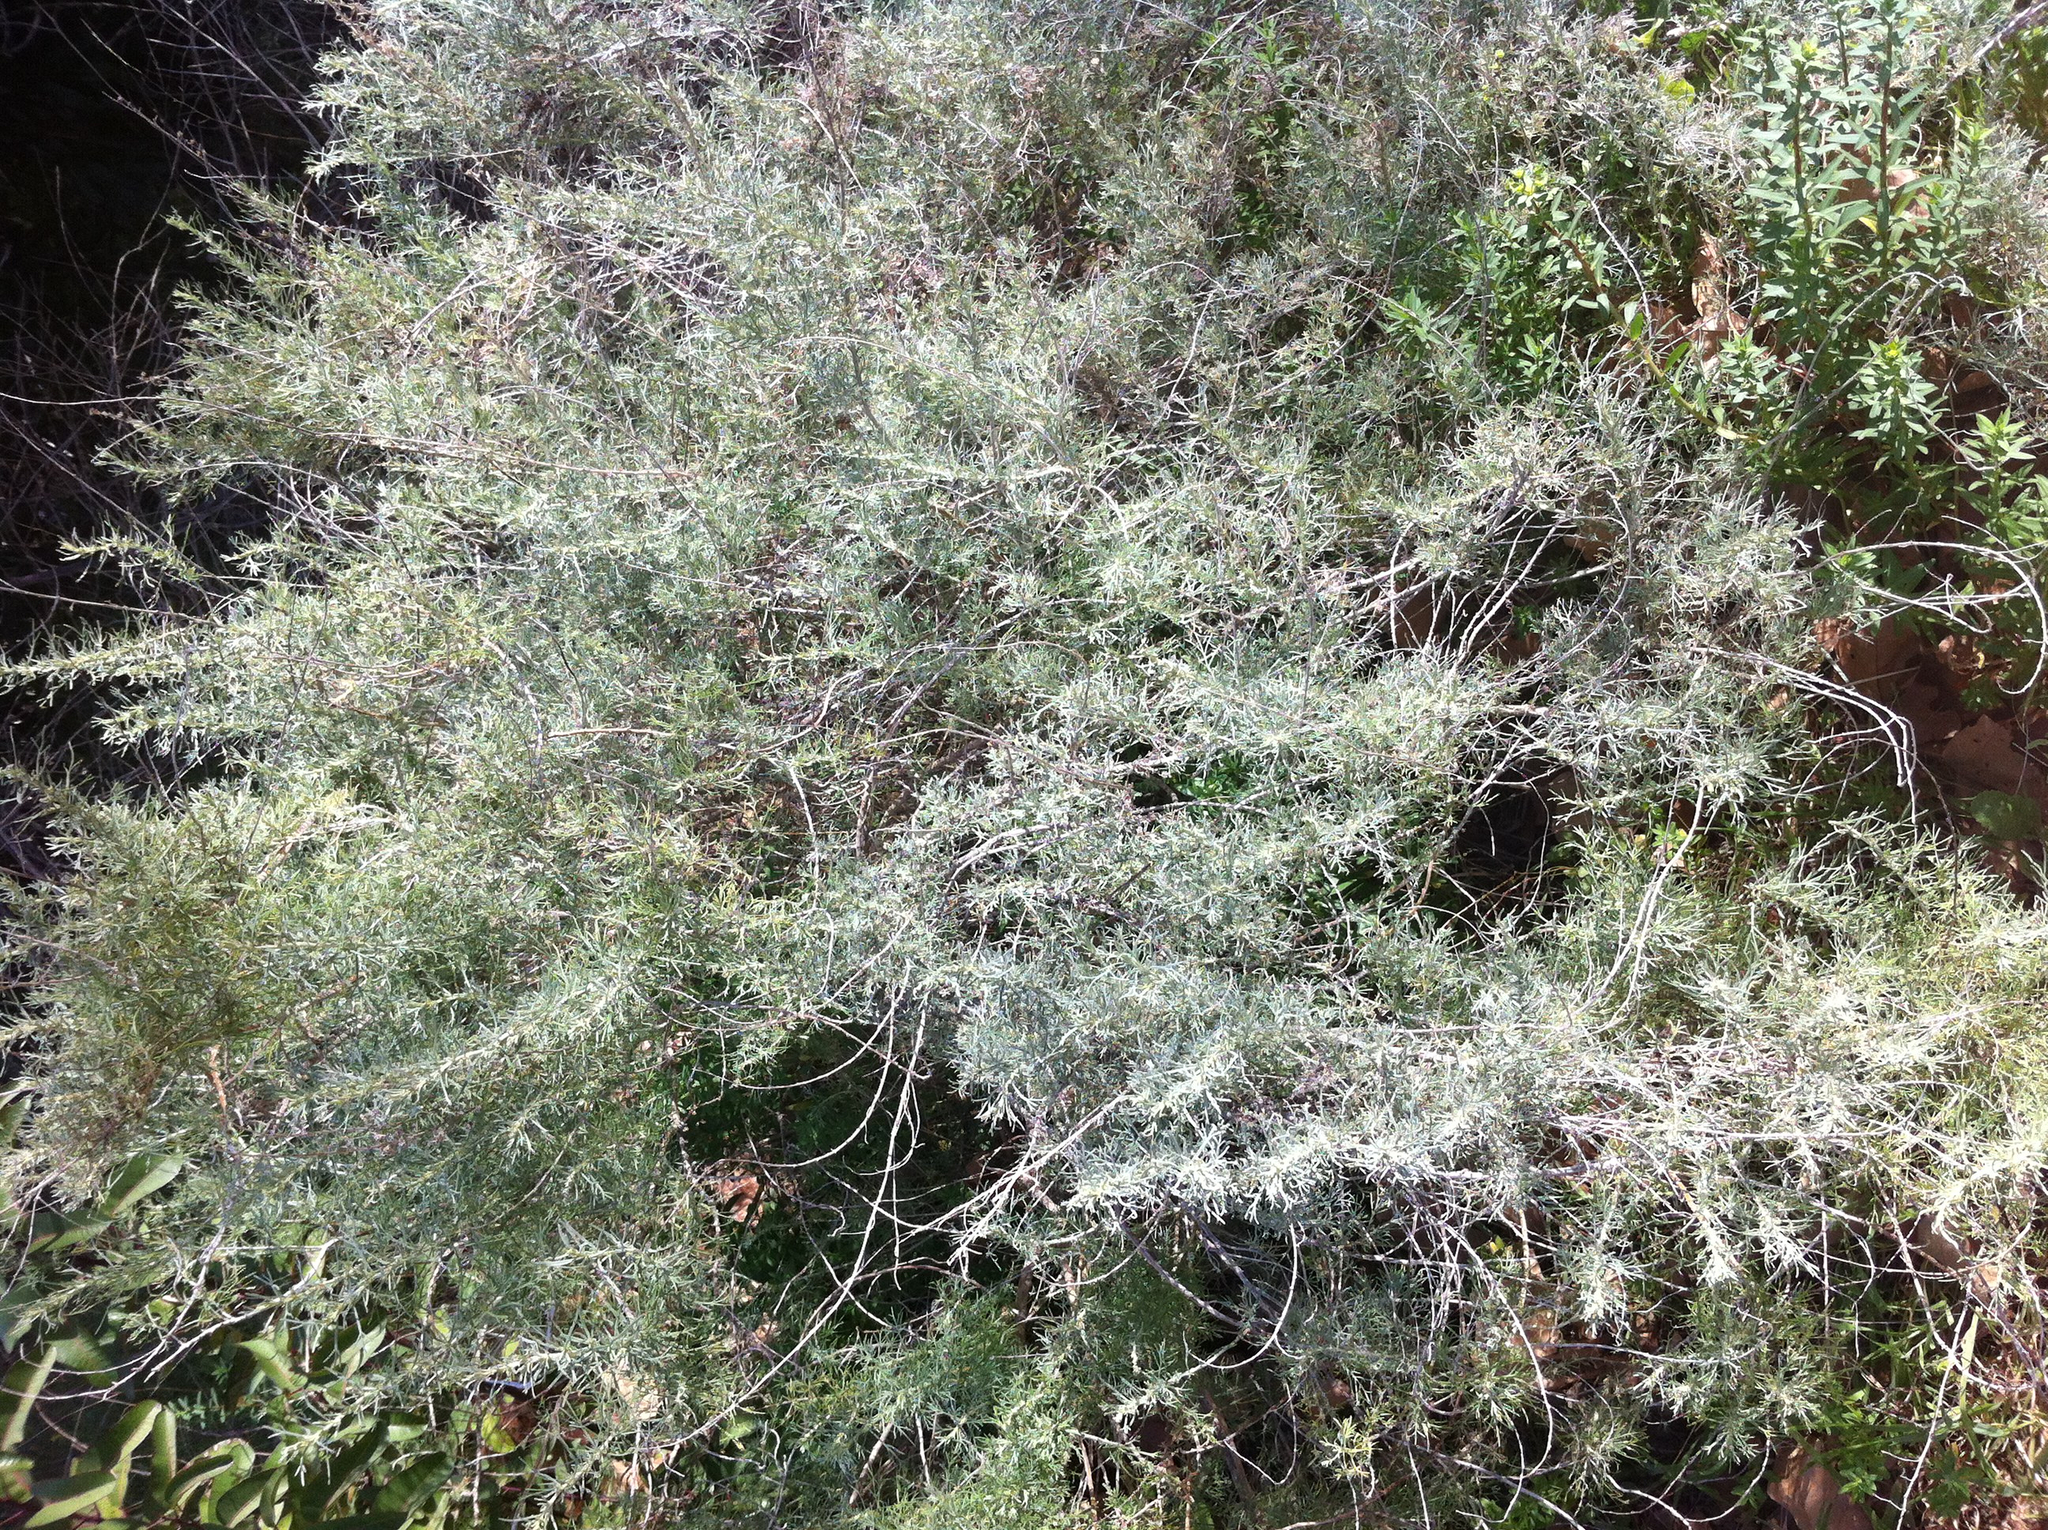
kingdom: Plantae
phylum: Tracheophyta
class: Magnoliopsida
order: Asterales
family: Asteraceae
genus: Artemisia
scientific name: Artemisia californica
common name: California sagebrush
